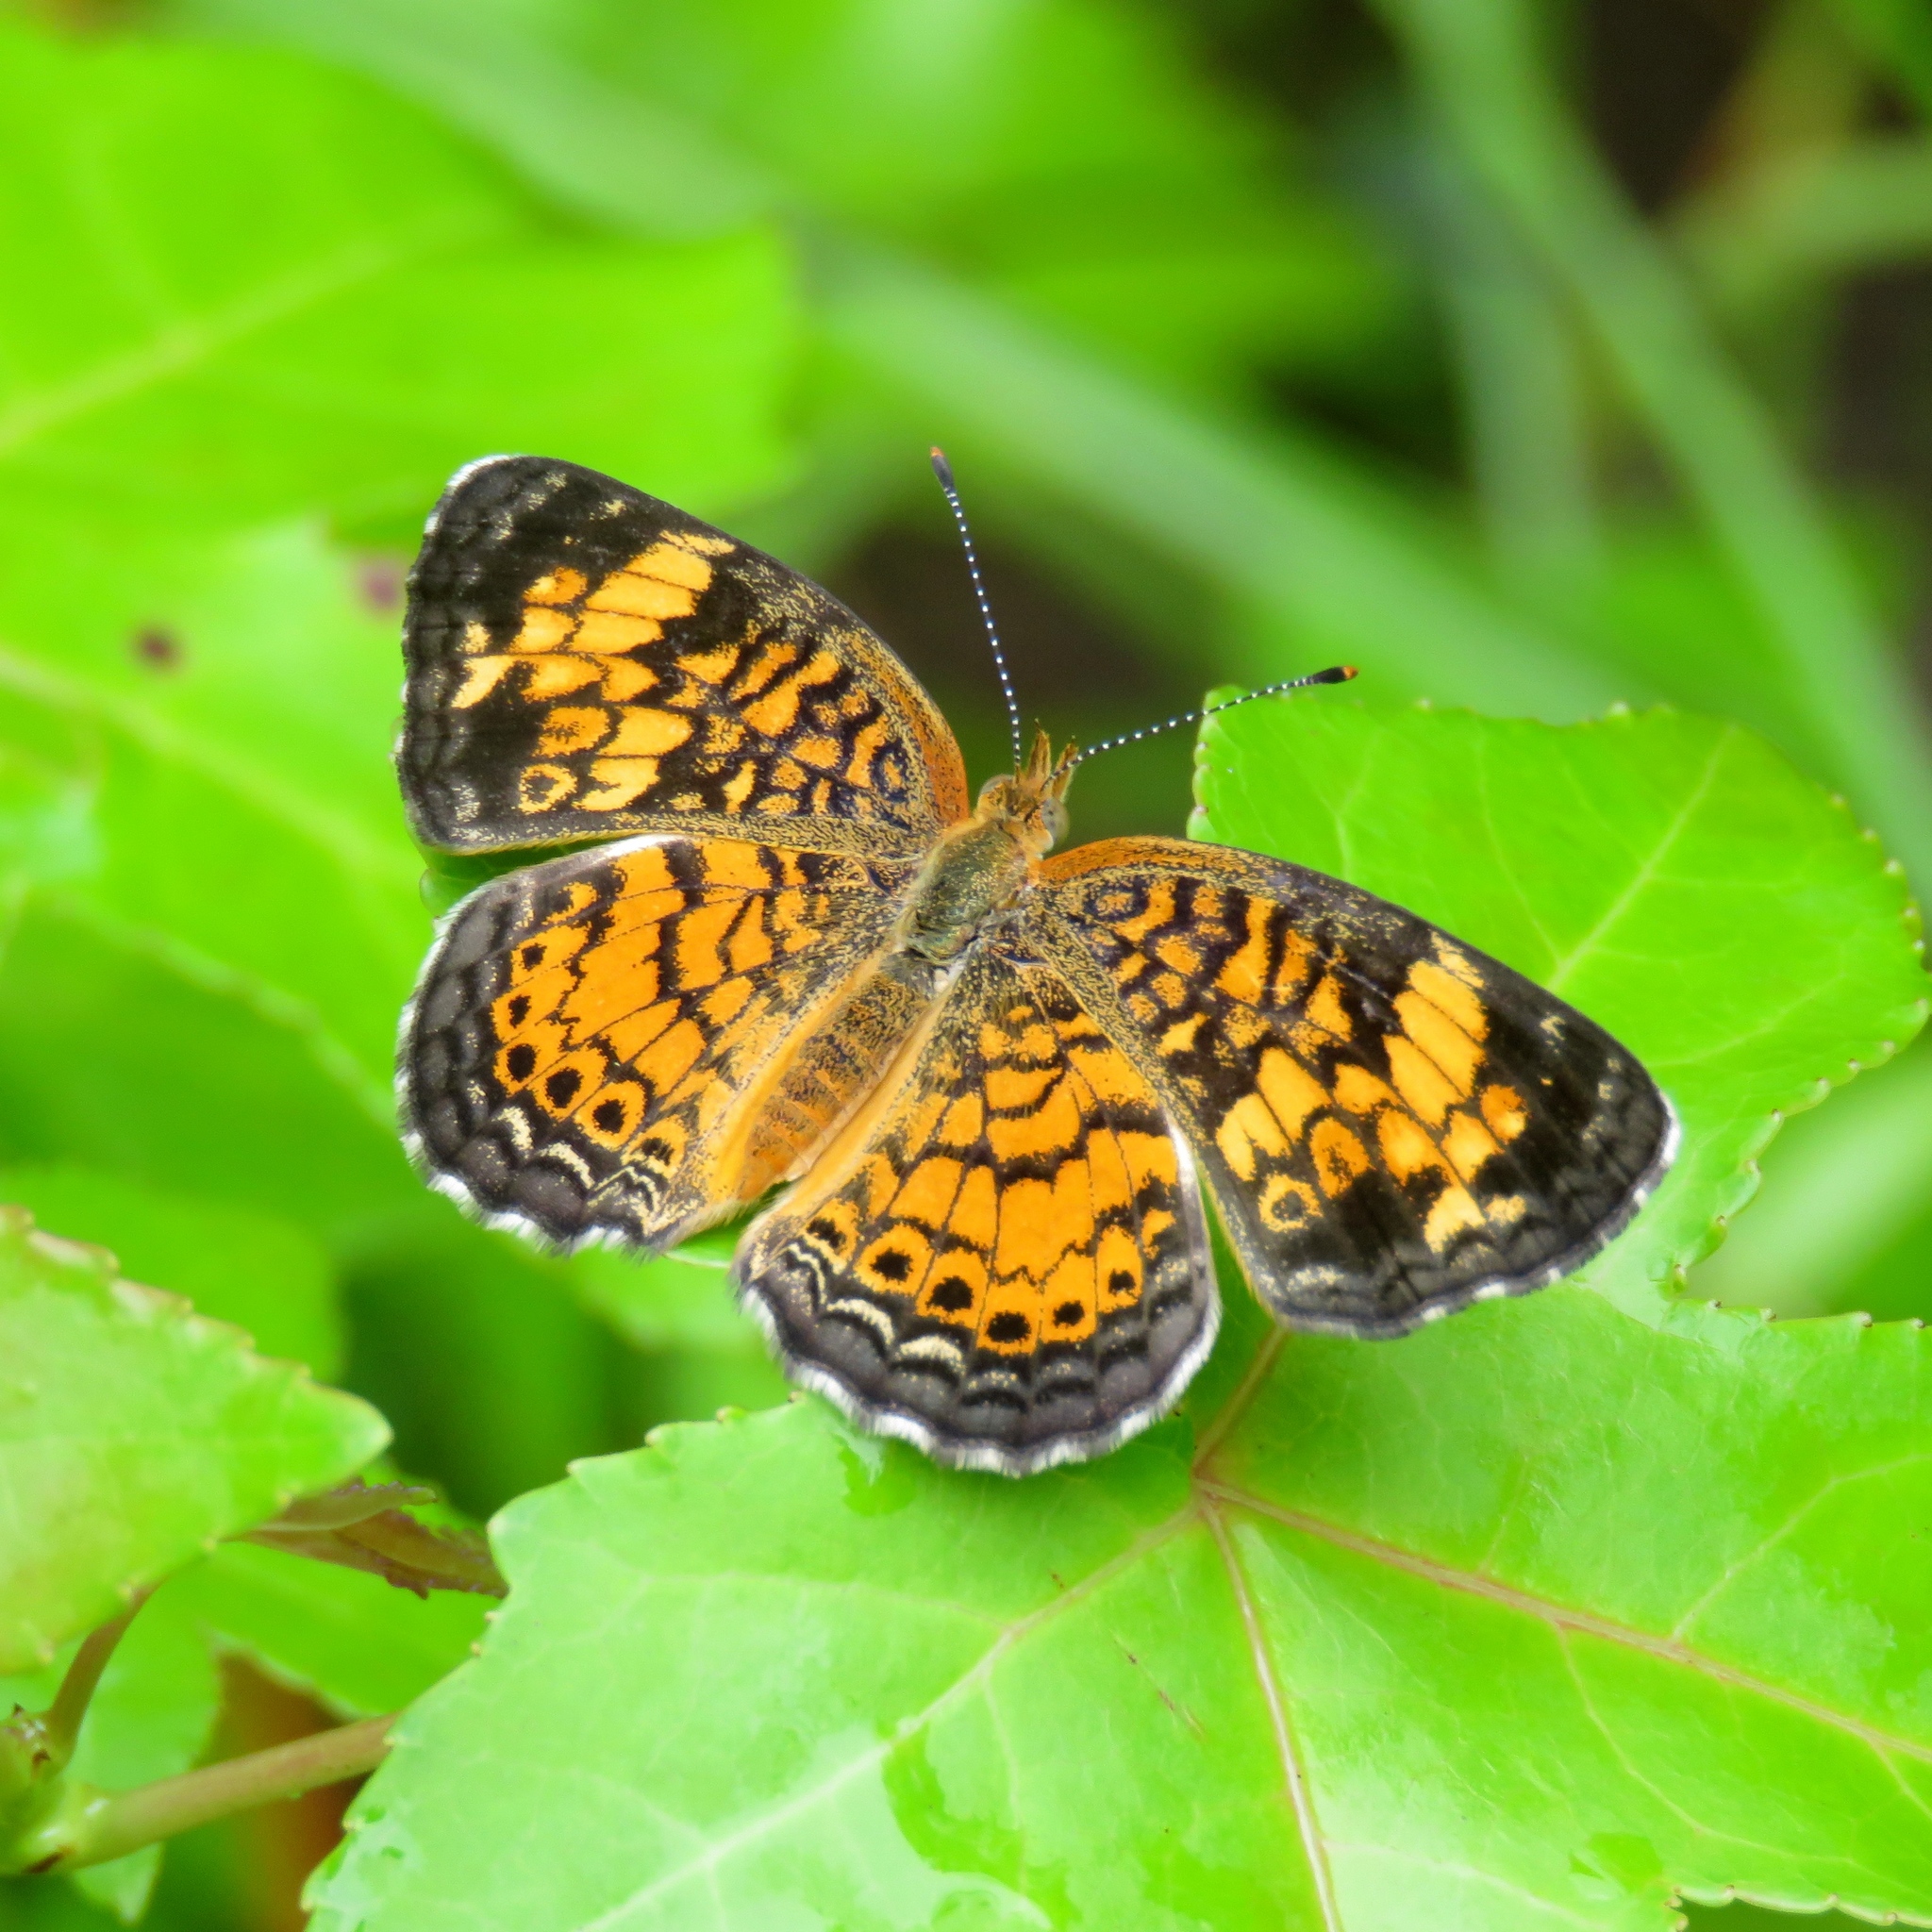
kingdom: Animalia
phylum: Arthropoda
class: Insecta
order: Lepidoptera
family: Nymphalidae
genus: Phyciodes
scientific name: Phyciodes tharos
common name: Pearl crescent
